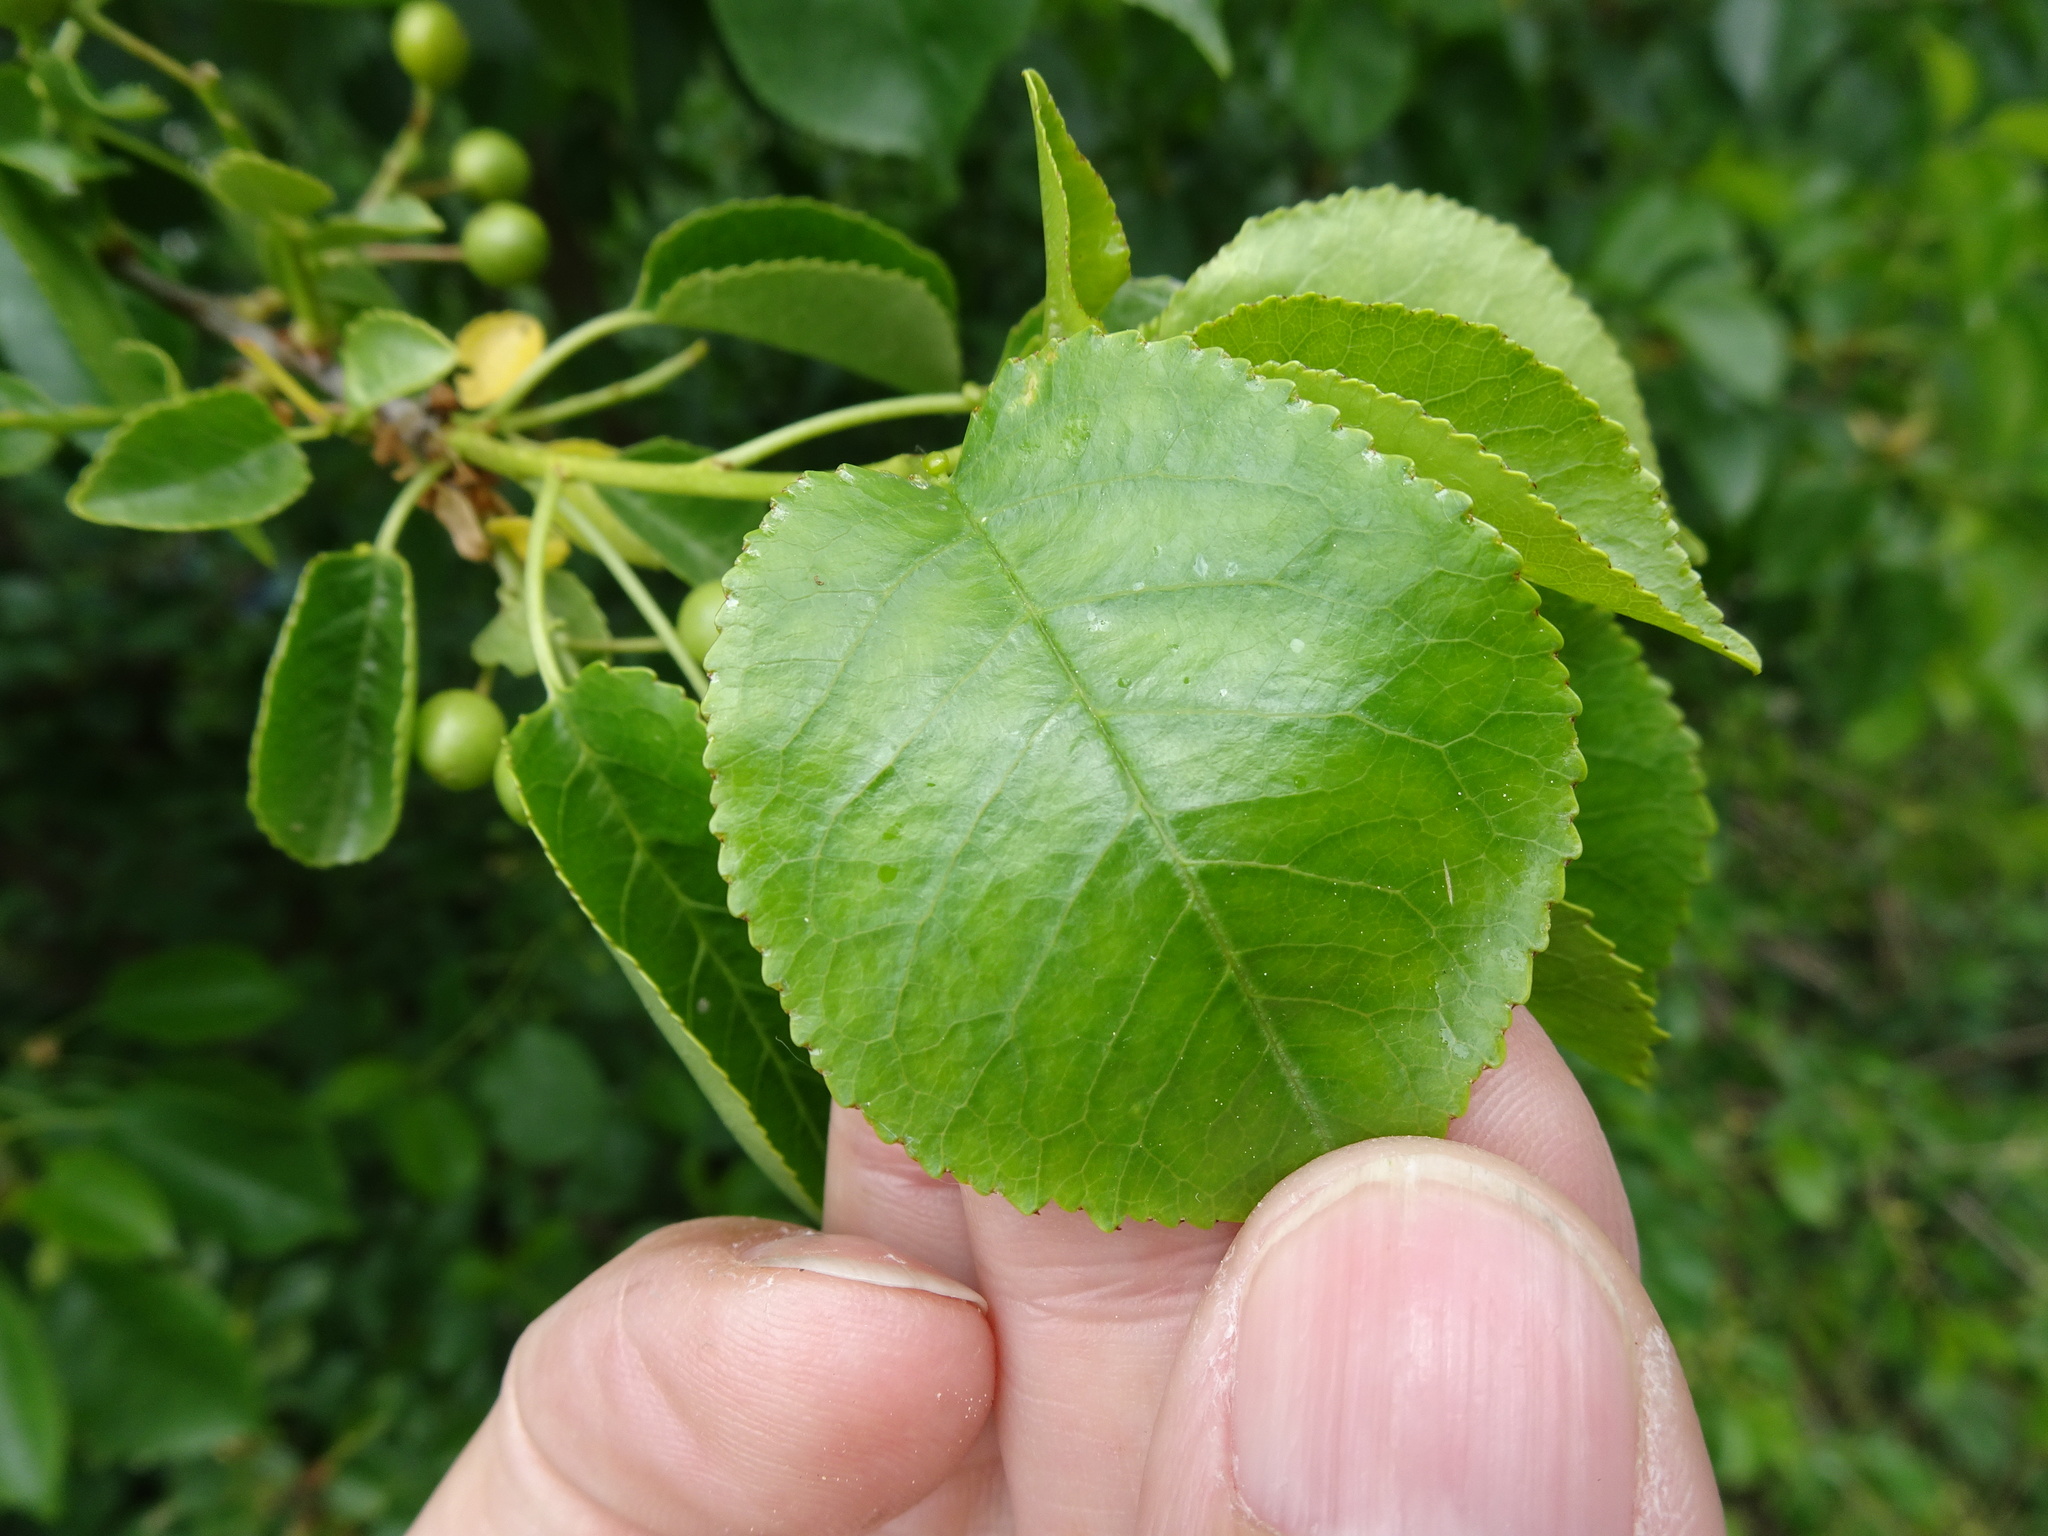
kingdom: Plantae
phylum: Tracheophyta
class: Magnoliopsida
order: Rosales
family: Rosaceae
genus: Prunus
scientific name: Prunus mahaleb
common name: Mahaleb cherry
